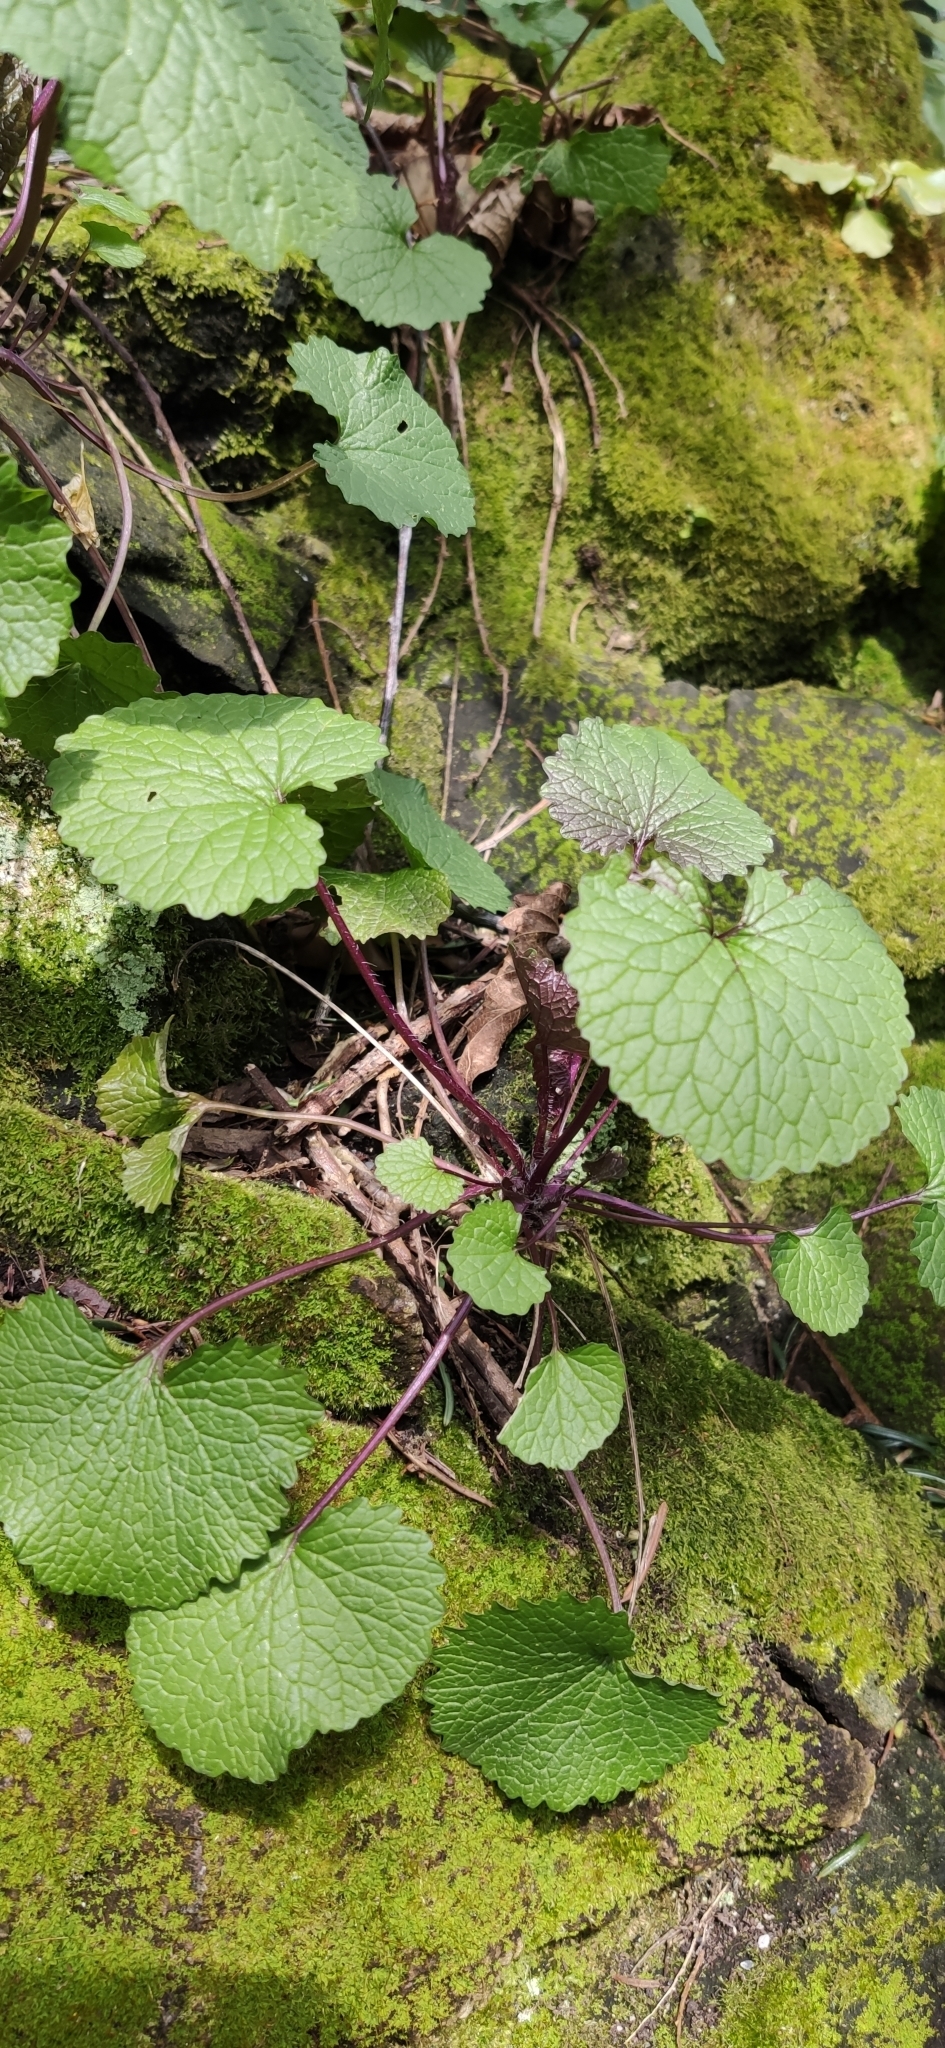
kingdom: Plantae
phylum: Tracheophyta
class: Magnoliopsida
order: Brassicales
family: Brassicaceae
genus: Alliaria
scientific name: Alliaria petiolata
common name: Garlic mustard
